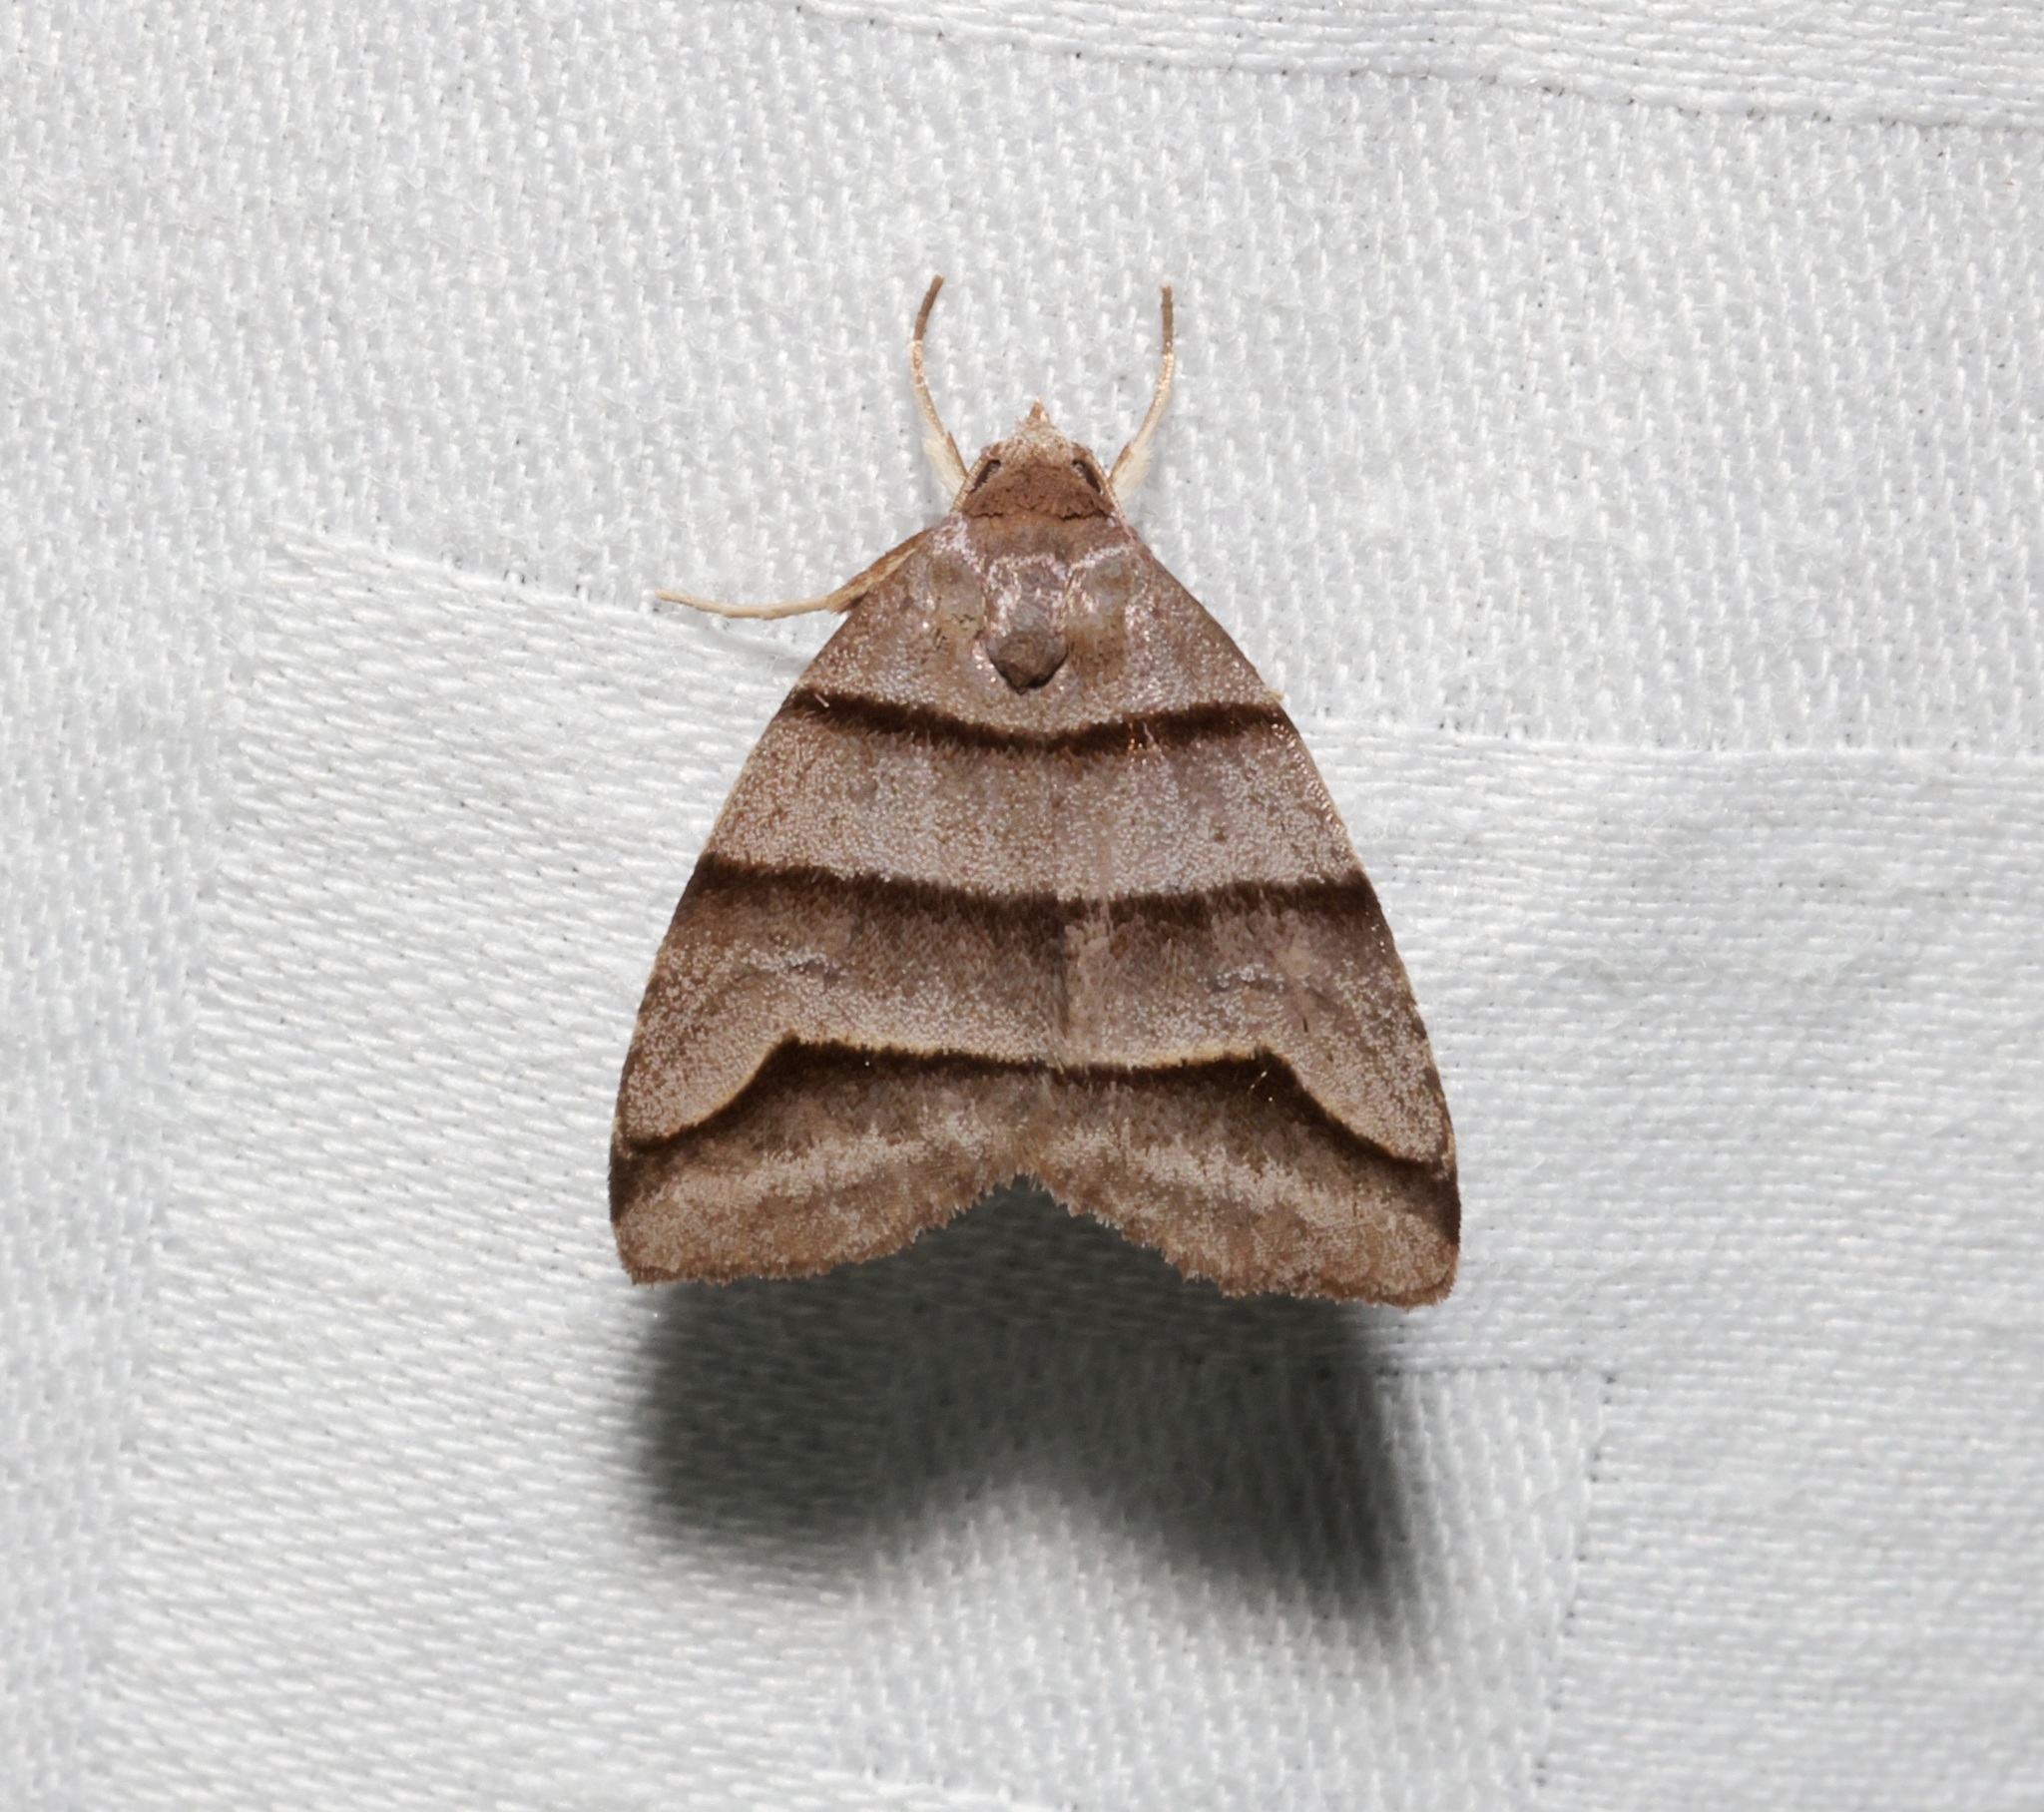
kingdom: Animalia
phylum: Arthropoda
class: Insecta
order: Lepidoptera
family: Noctuidae
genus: Flammona
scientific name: Flammona trilineata
